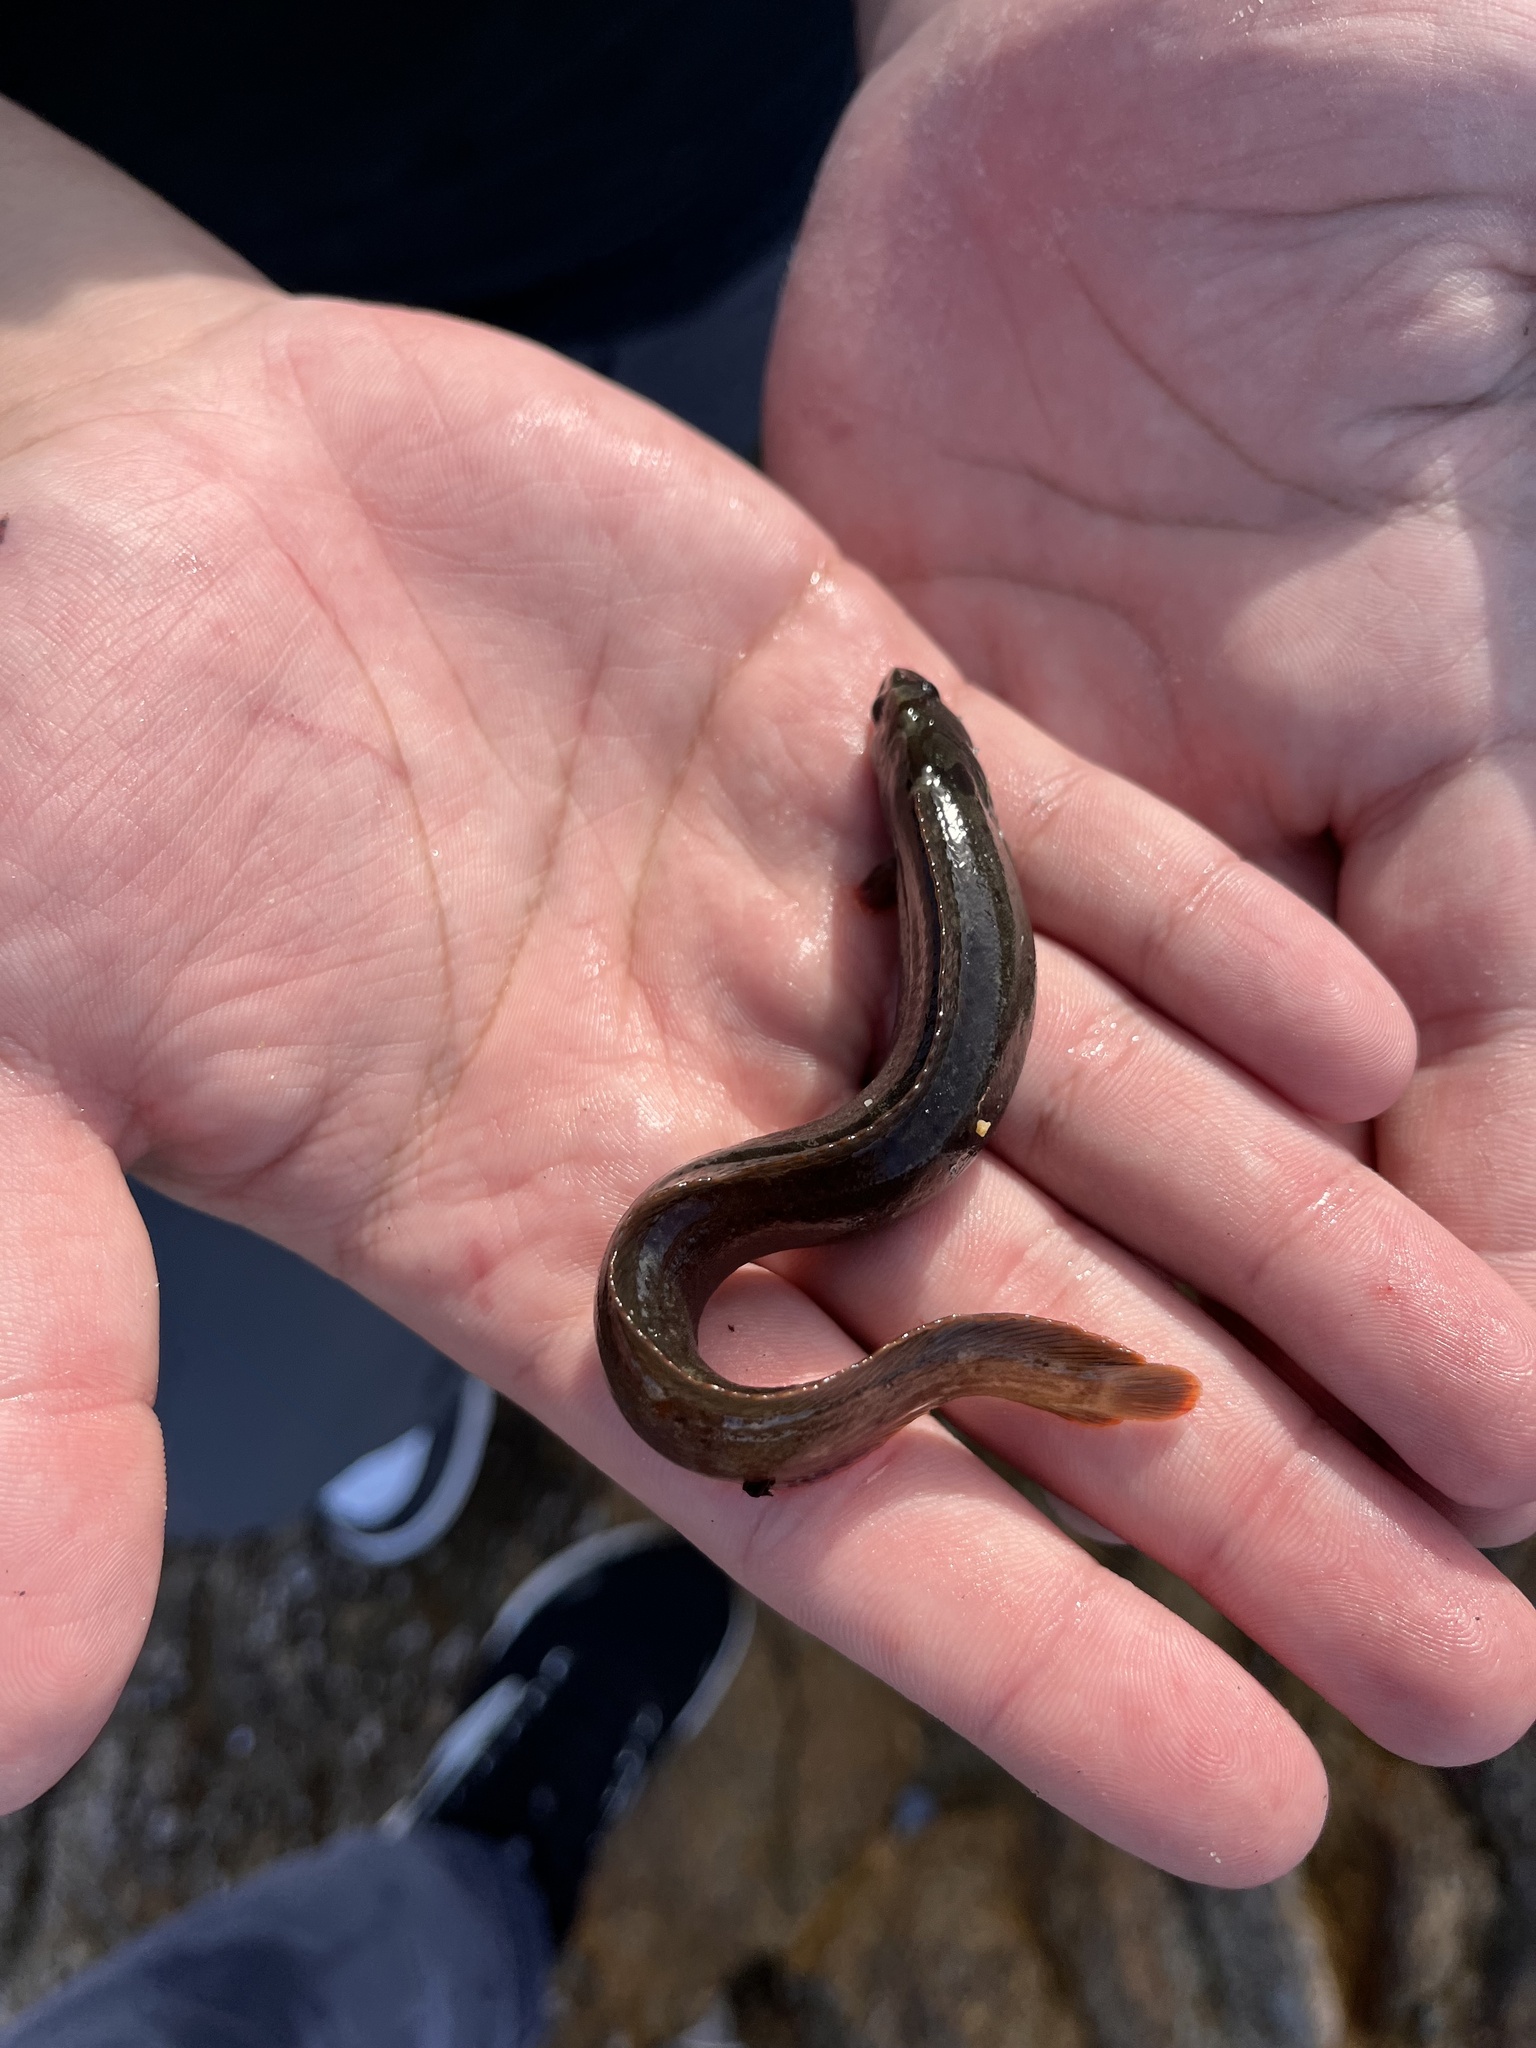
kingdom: Animalia
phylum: Chordata
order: Perciformes
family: Stichaeidae
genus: Cebidichthys
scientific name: Cebidichthys violaceus
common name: Monkeyface prickleback
